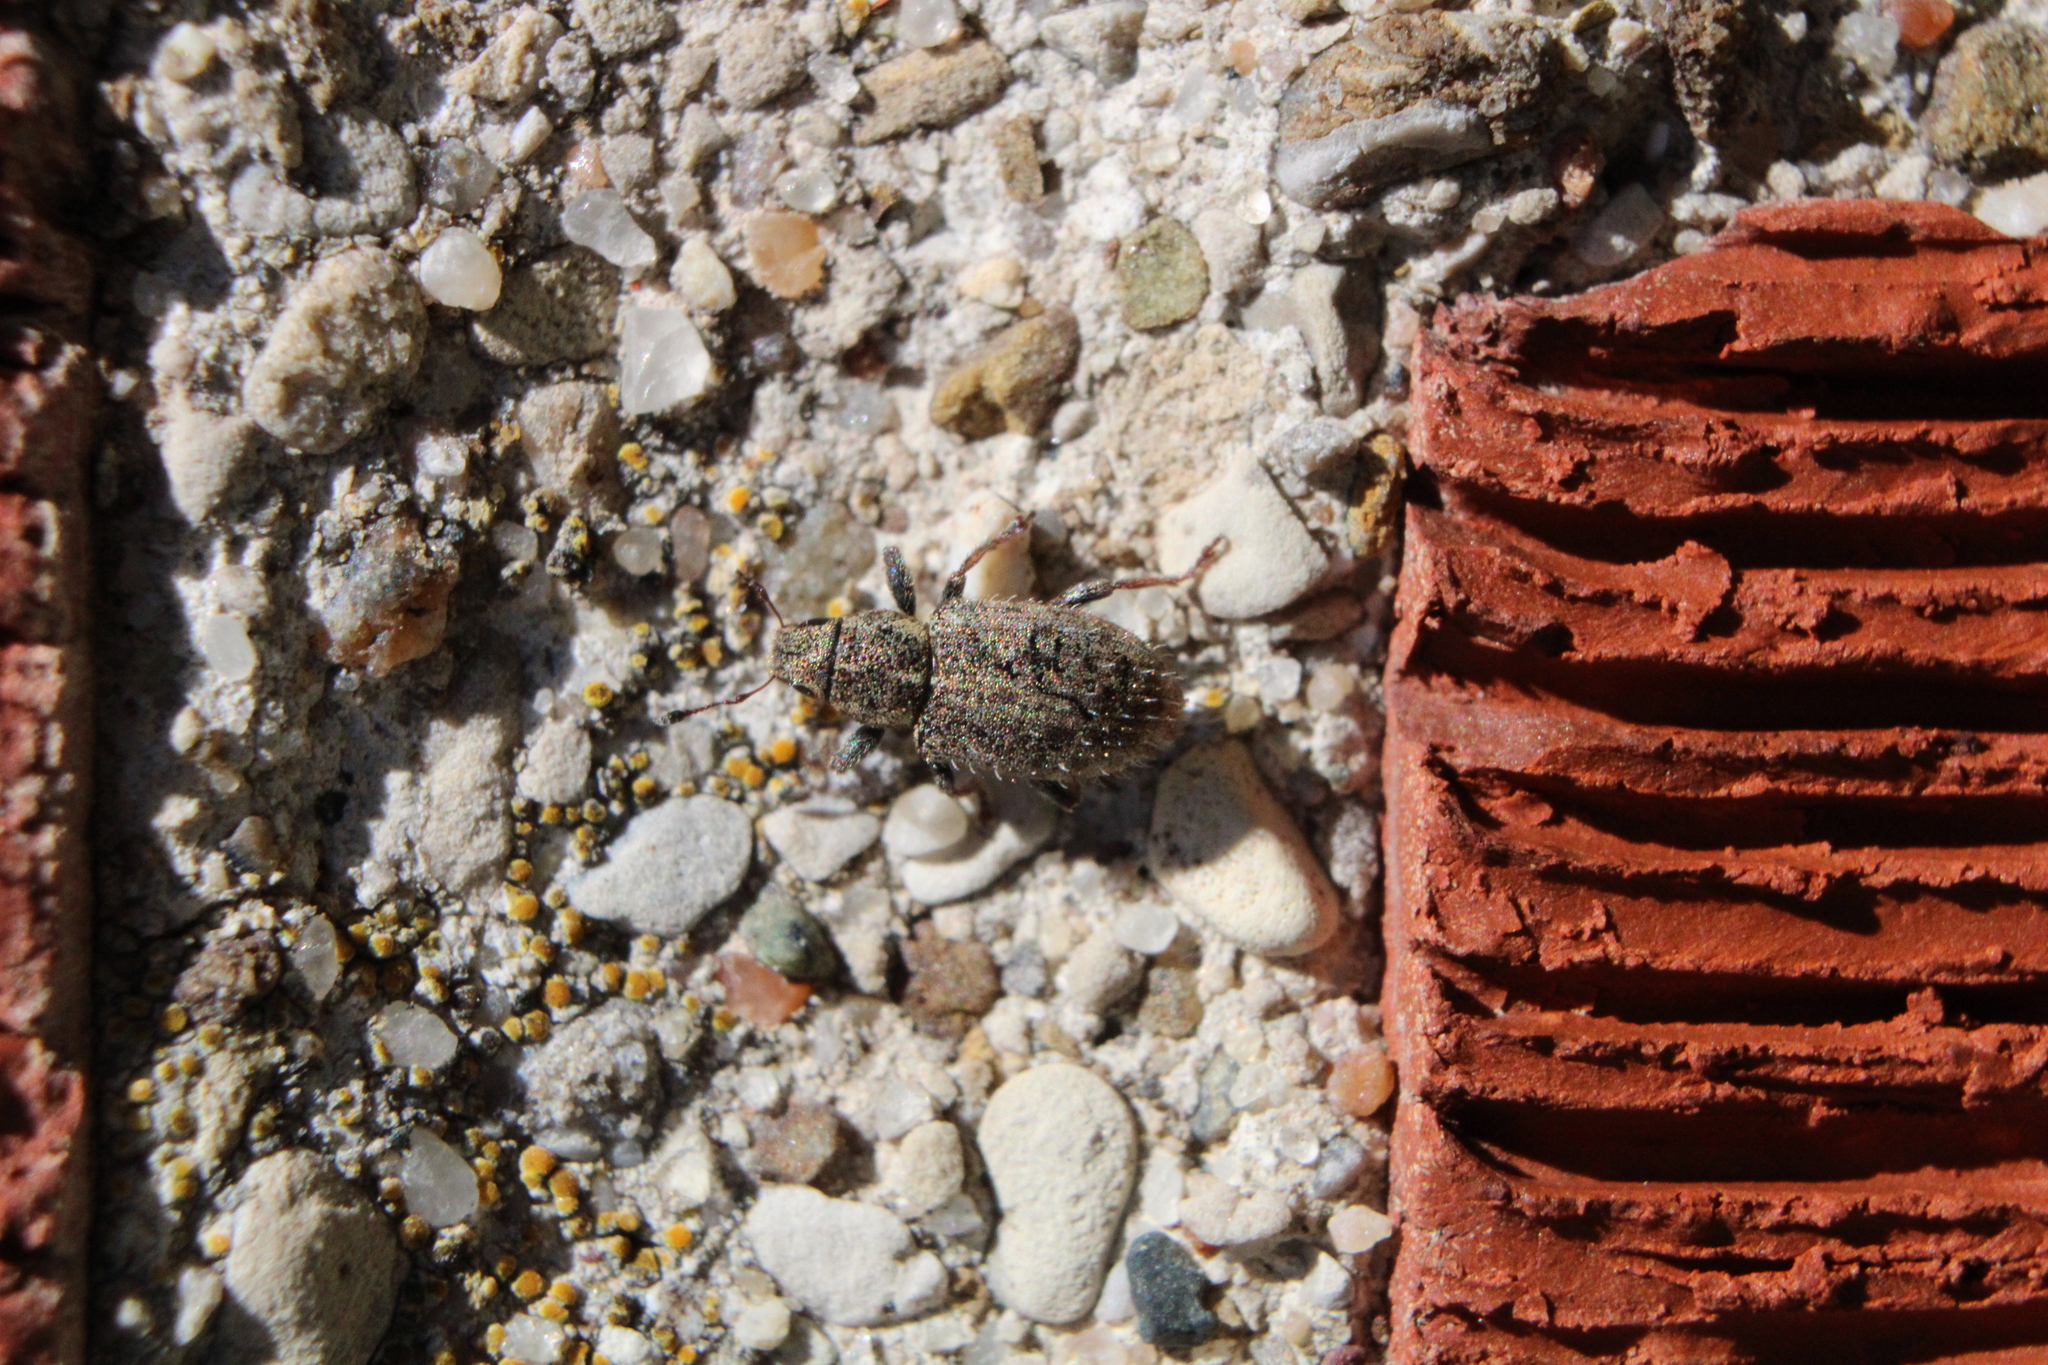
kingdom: Animalia
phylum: Arthropoda
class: Insecta
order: Coleoptera
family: Curculionidae
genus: Sitona
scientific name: Sitona hispidulus
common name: Clover weevil
